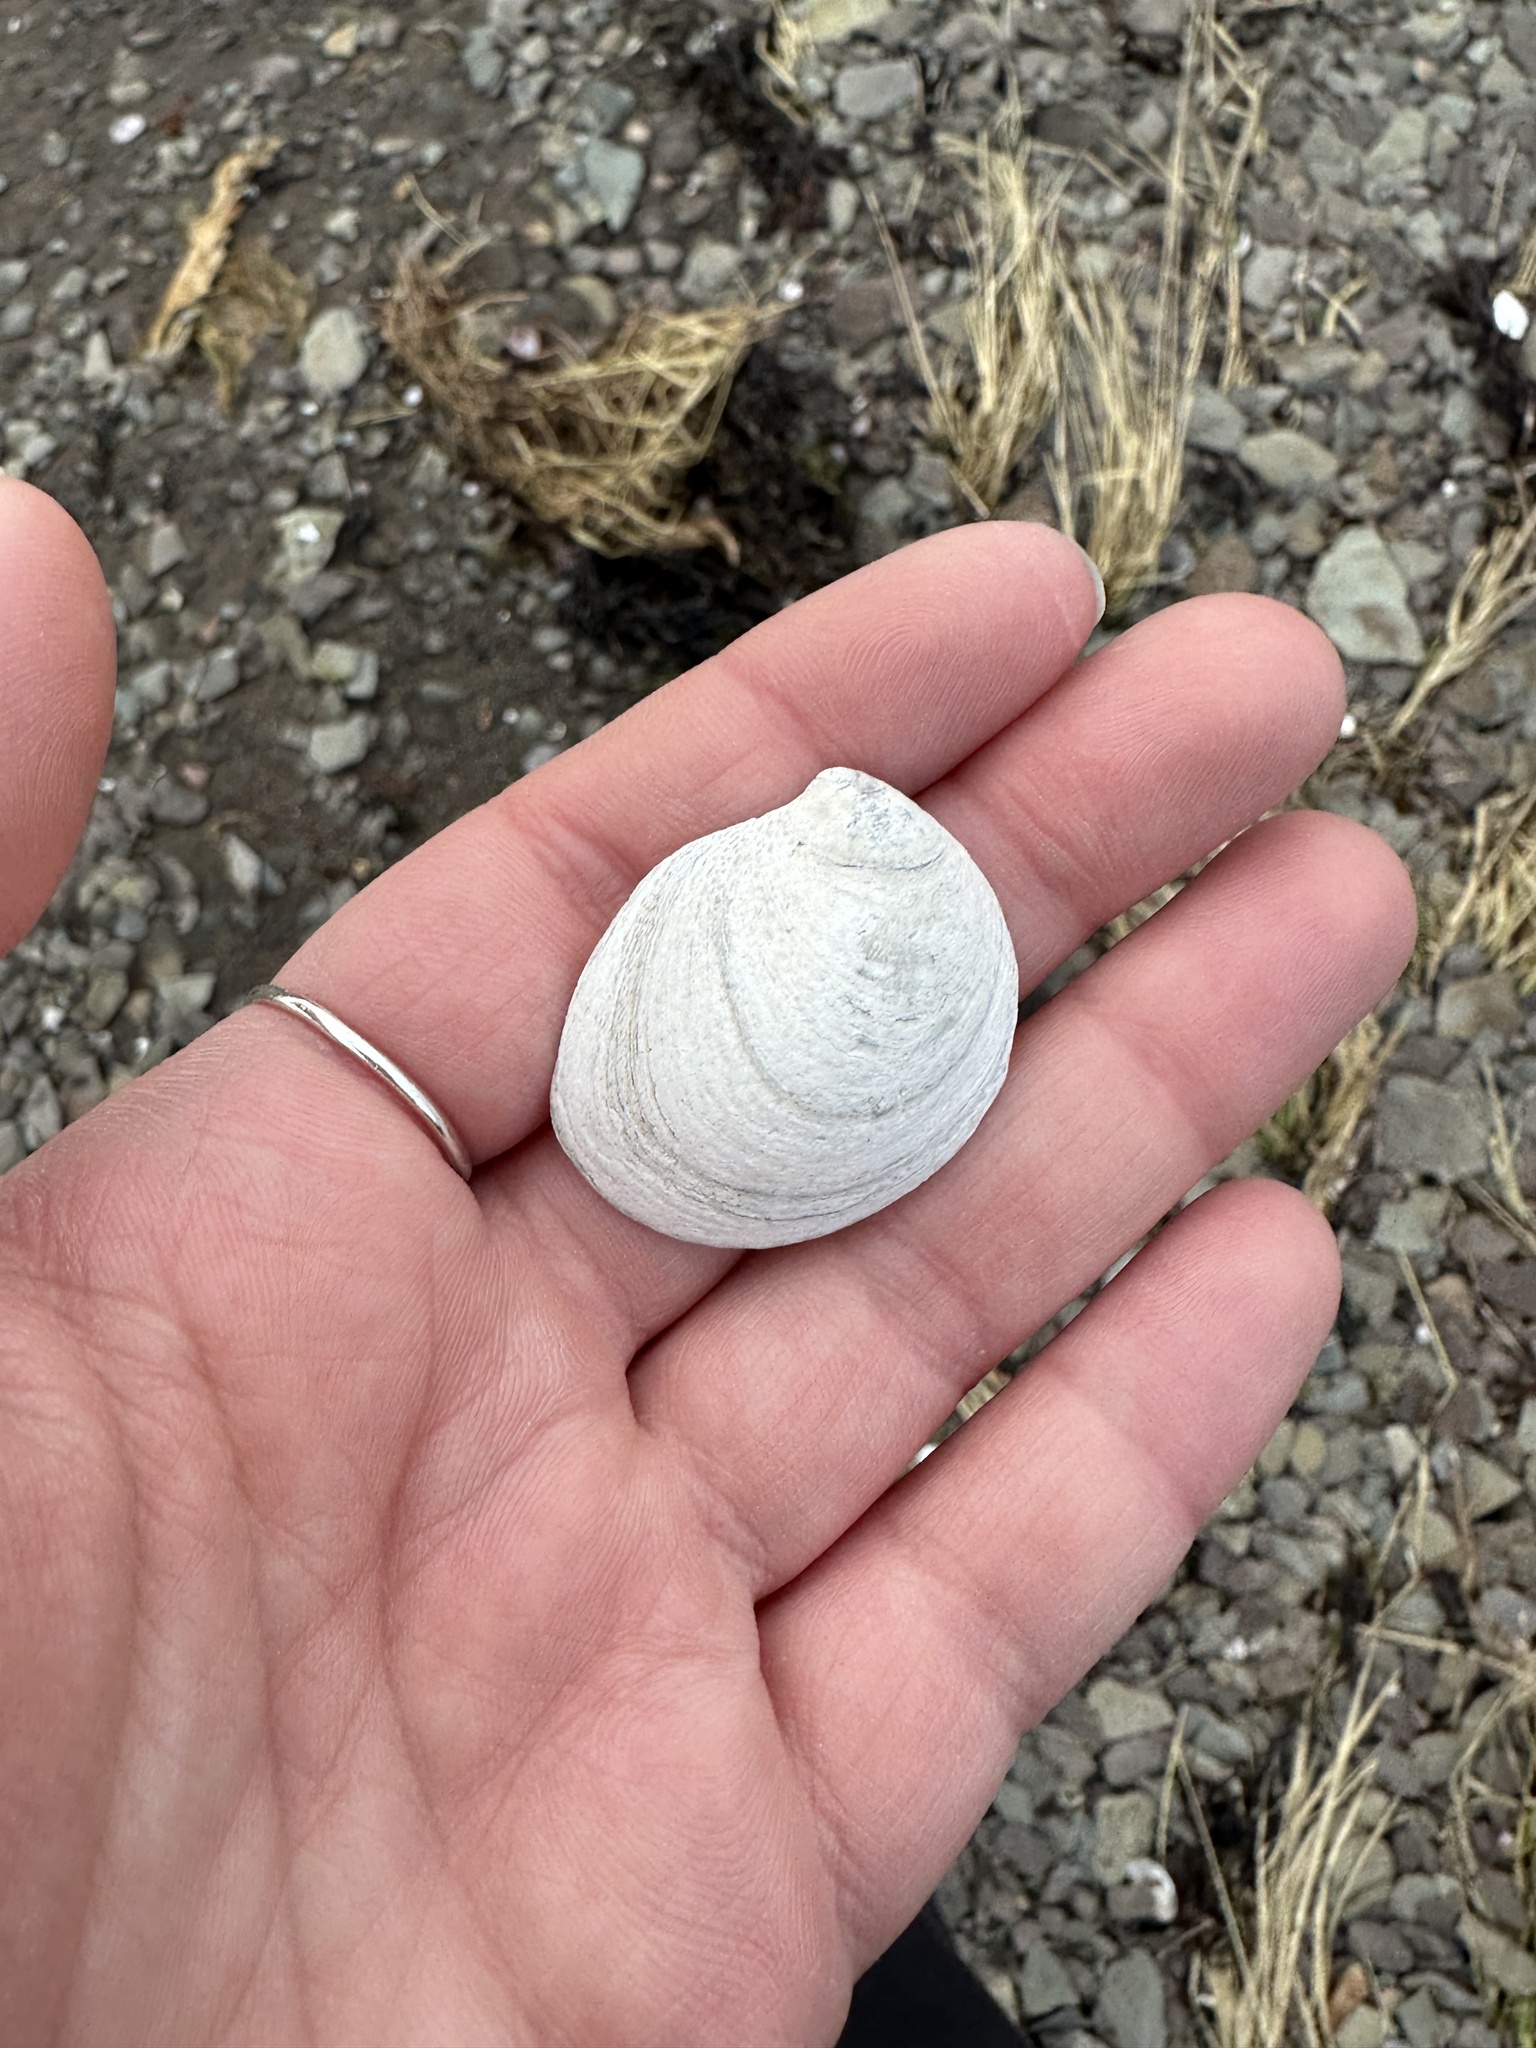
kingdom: Animalia
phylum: Mollusca
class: Gastropoda
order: Littorinimorpha
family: Calyptraeidae
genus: Crepidula
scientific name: Crepidula fornicata
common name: Slipper limpet
